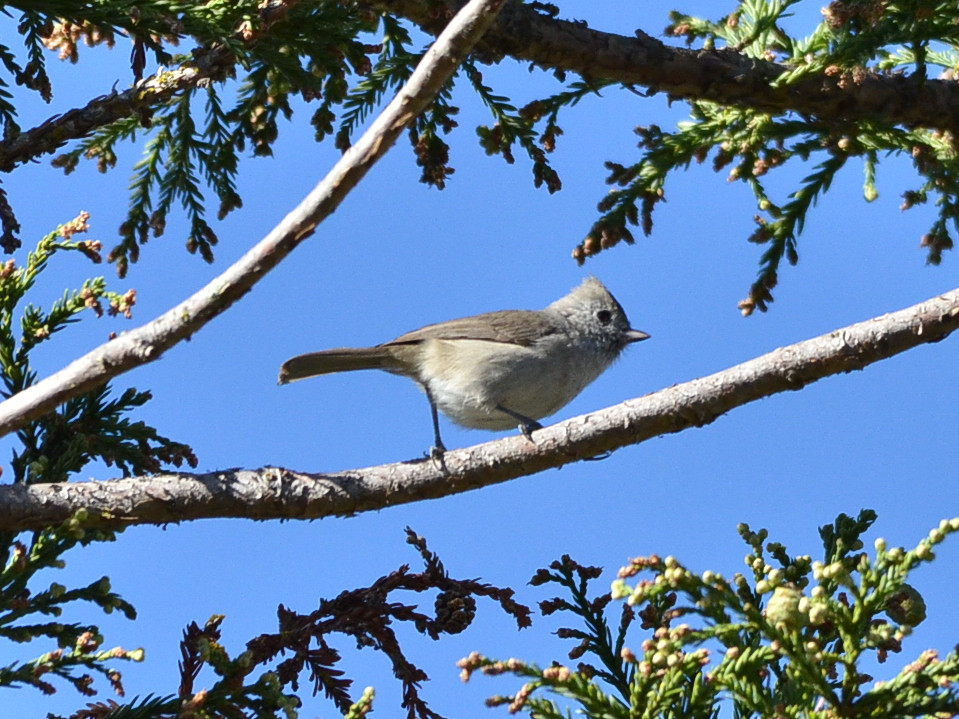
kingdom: Animalia
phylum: Chordata
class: Aves
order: Passeriformes
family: Paridae
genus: Baeolophus
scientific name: Baeolophus inornatus
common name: Oak titmouse
